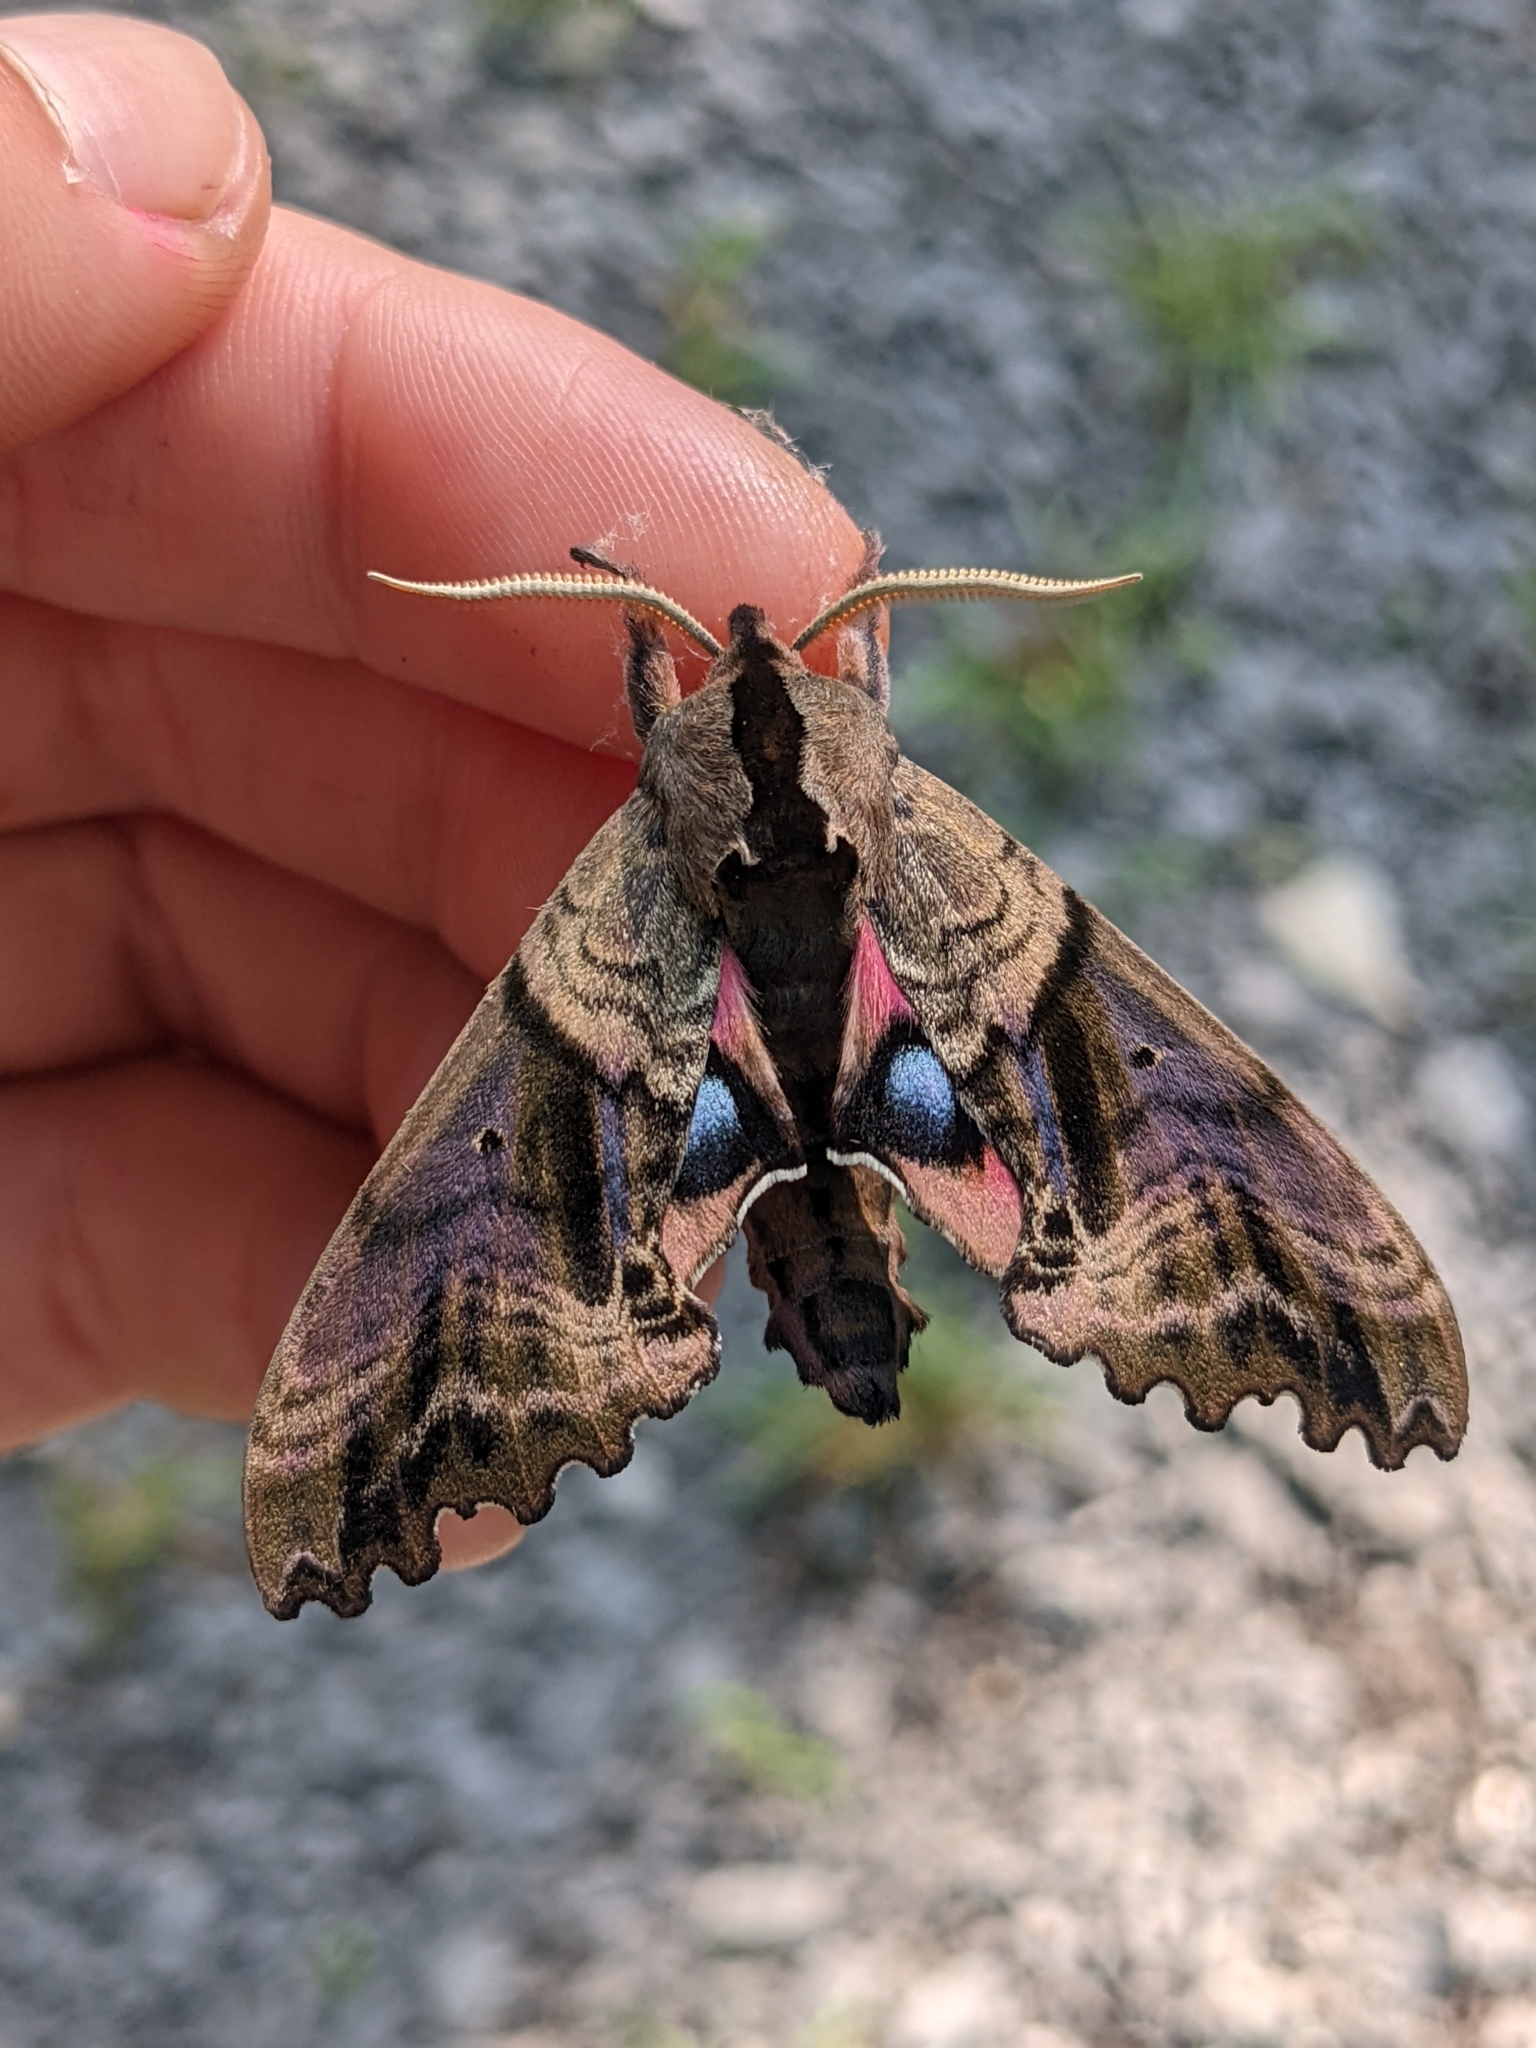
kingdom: Animalia
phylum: Arthropoda
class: Insecta
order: Lepidoptera
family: Sphingidae
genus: Paonias
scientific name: Paonias excaecata
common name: Blind-eyed sphinx
